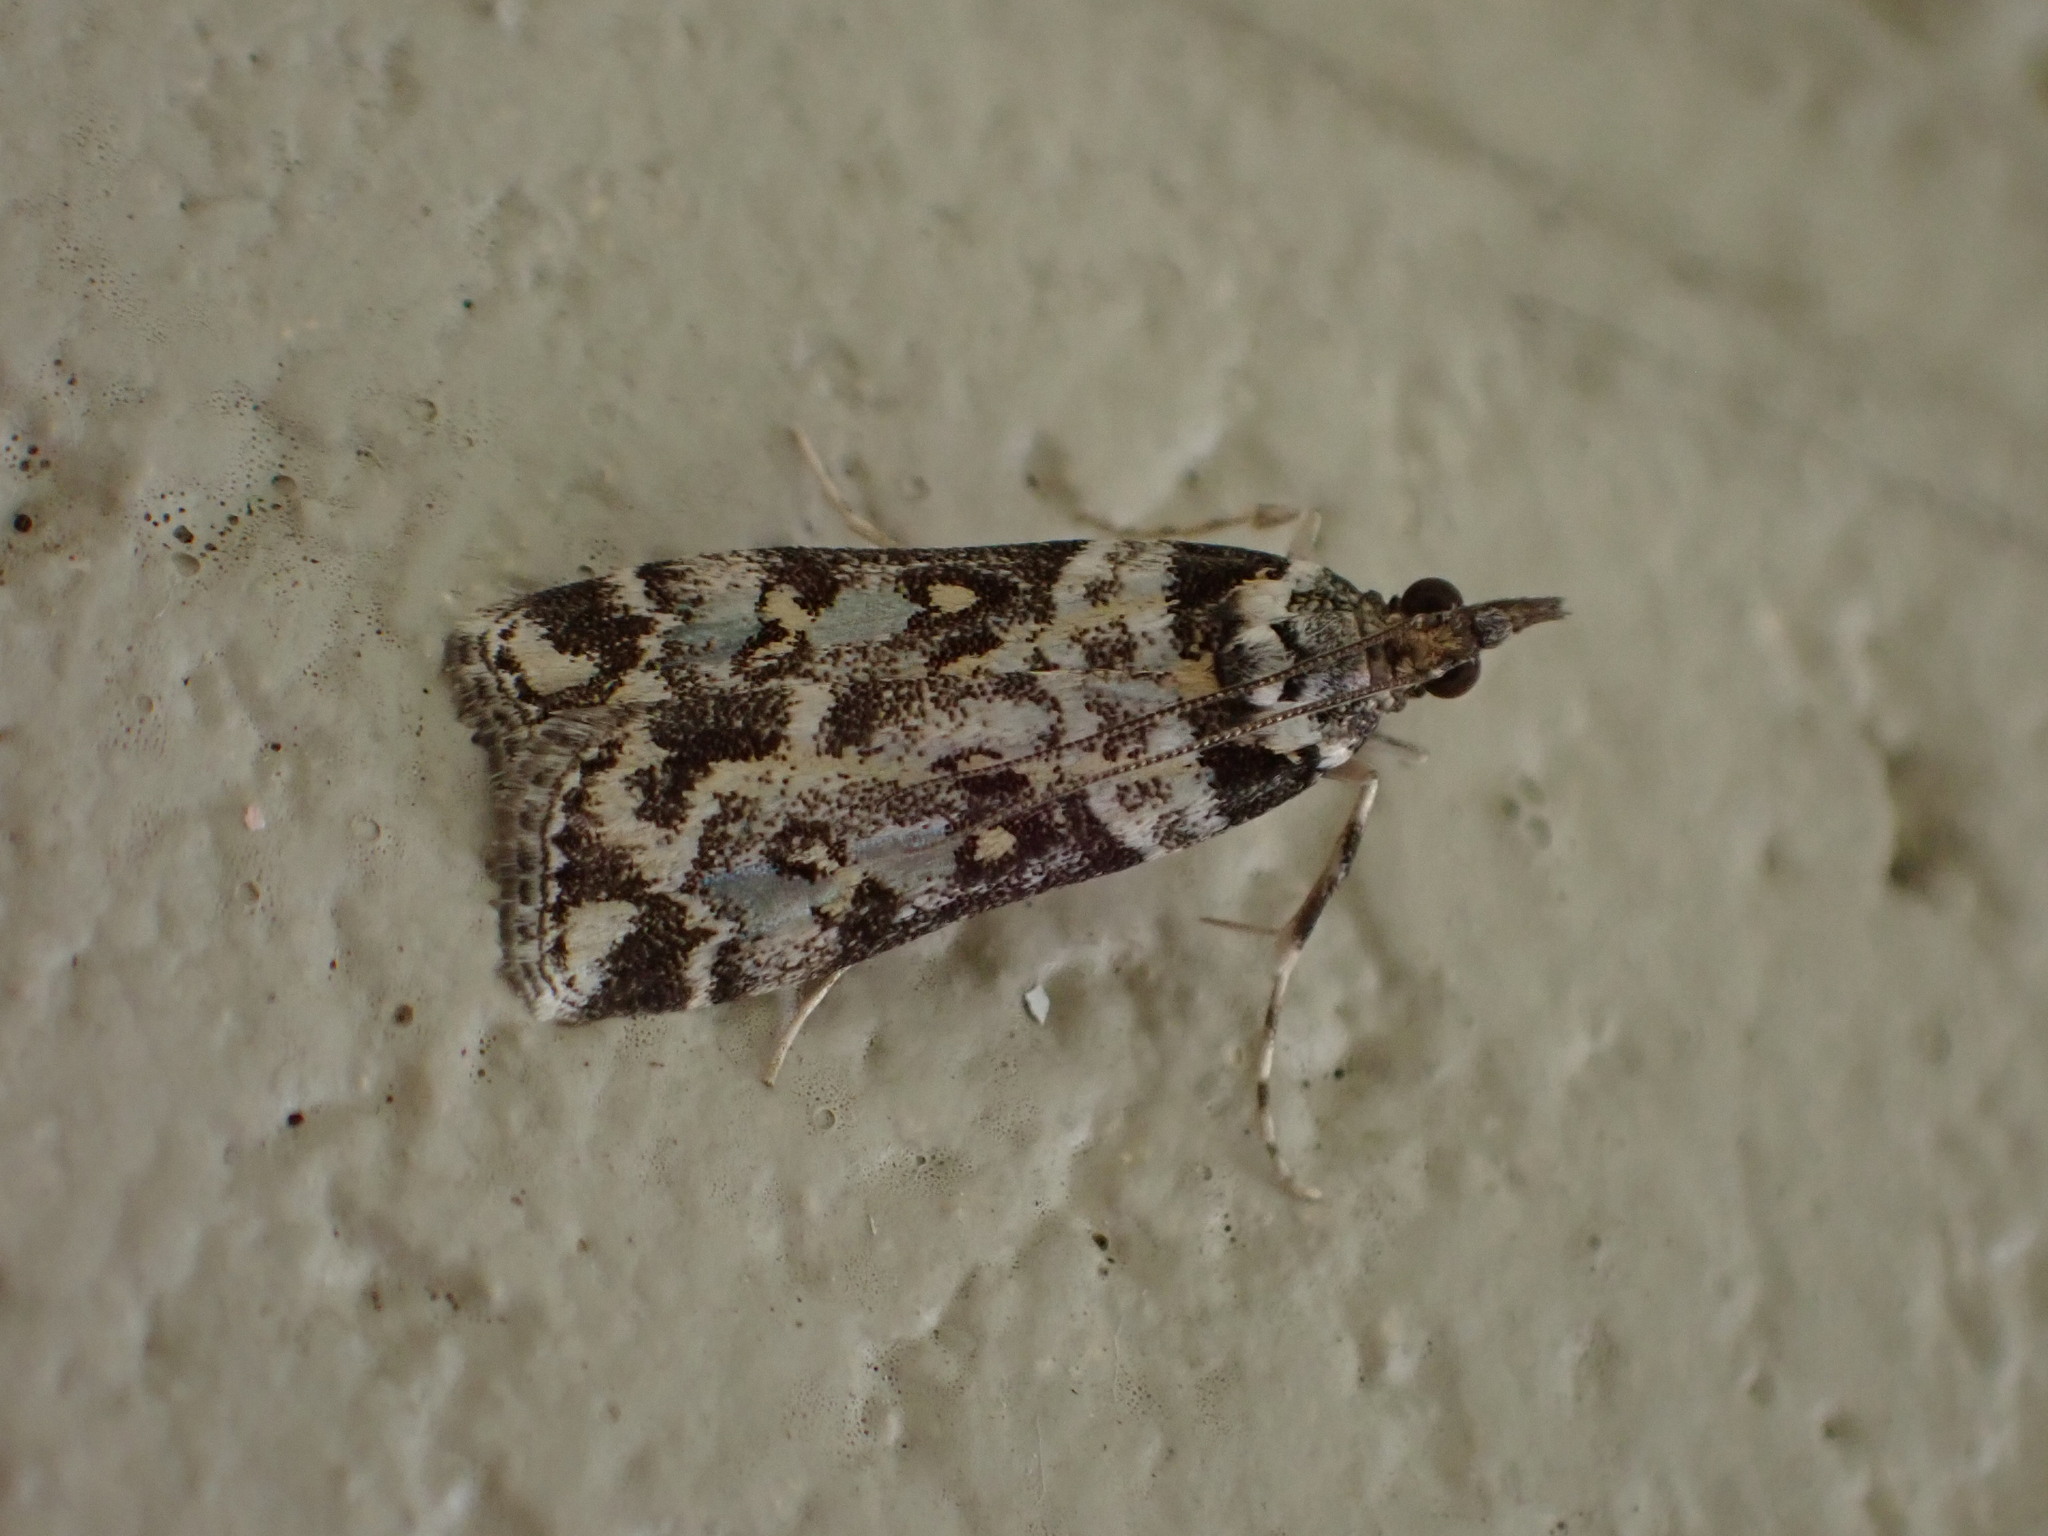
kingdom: Animalia
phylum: Arthropoda
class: Insecta
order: Lepidoptera
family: Crambidae
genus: Eudonia
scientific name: Eudonia diphtheralis
